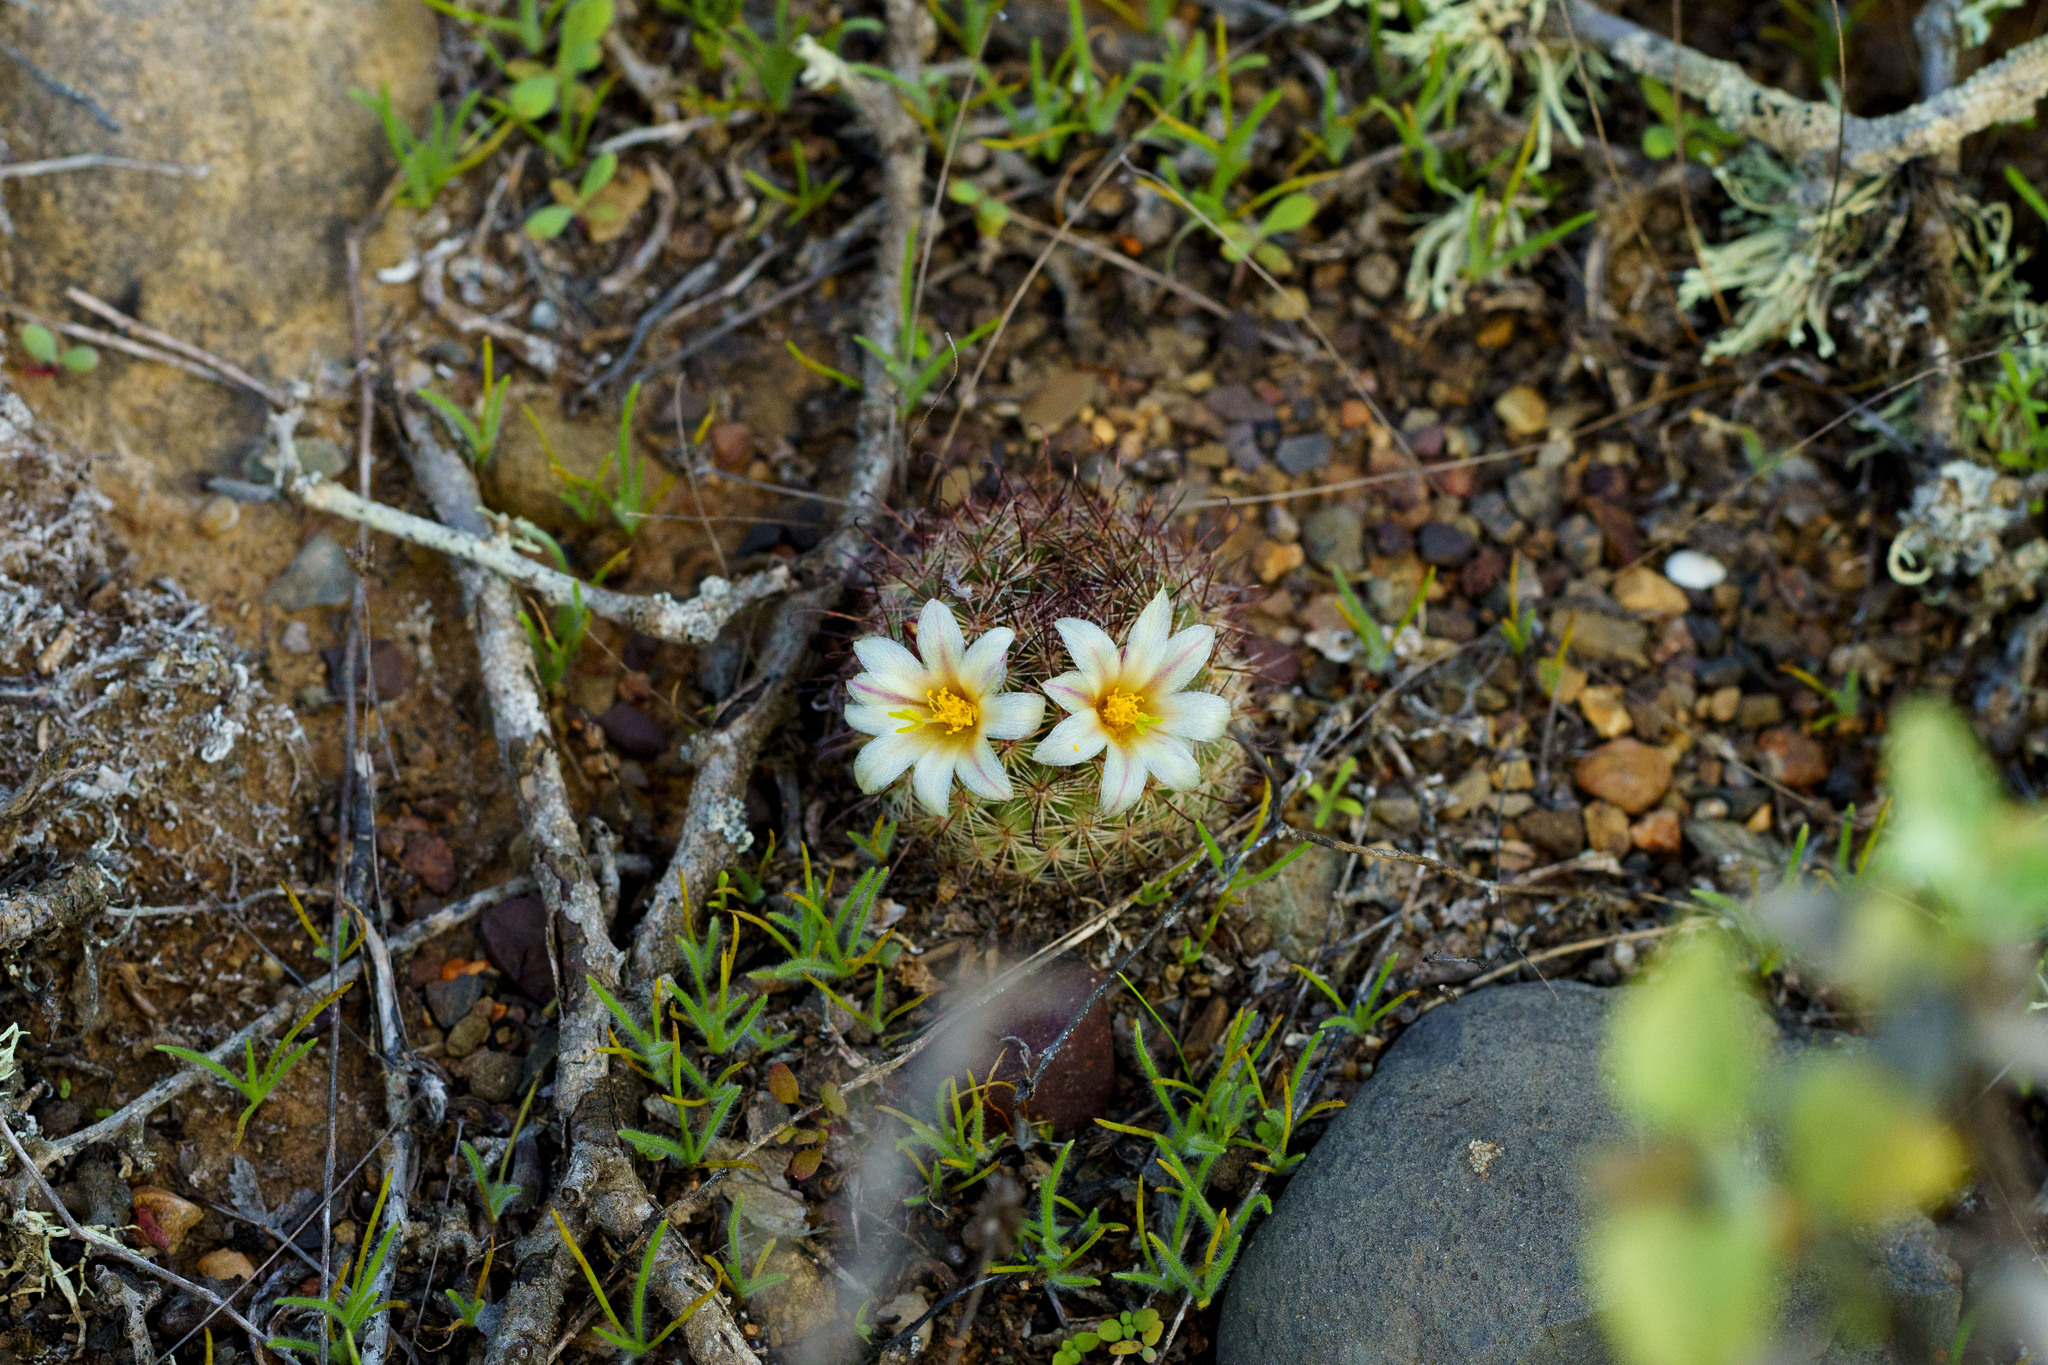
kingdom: Plantae
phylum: Tracheophyta
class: Magnoliopsida
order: Caryophyllales
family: Cactaceae
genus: Cochemiea
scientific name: Cochemiea dioica
